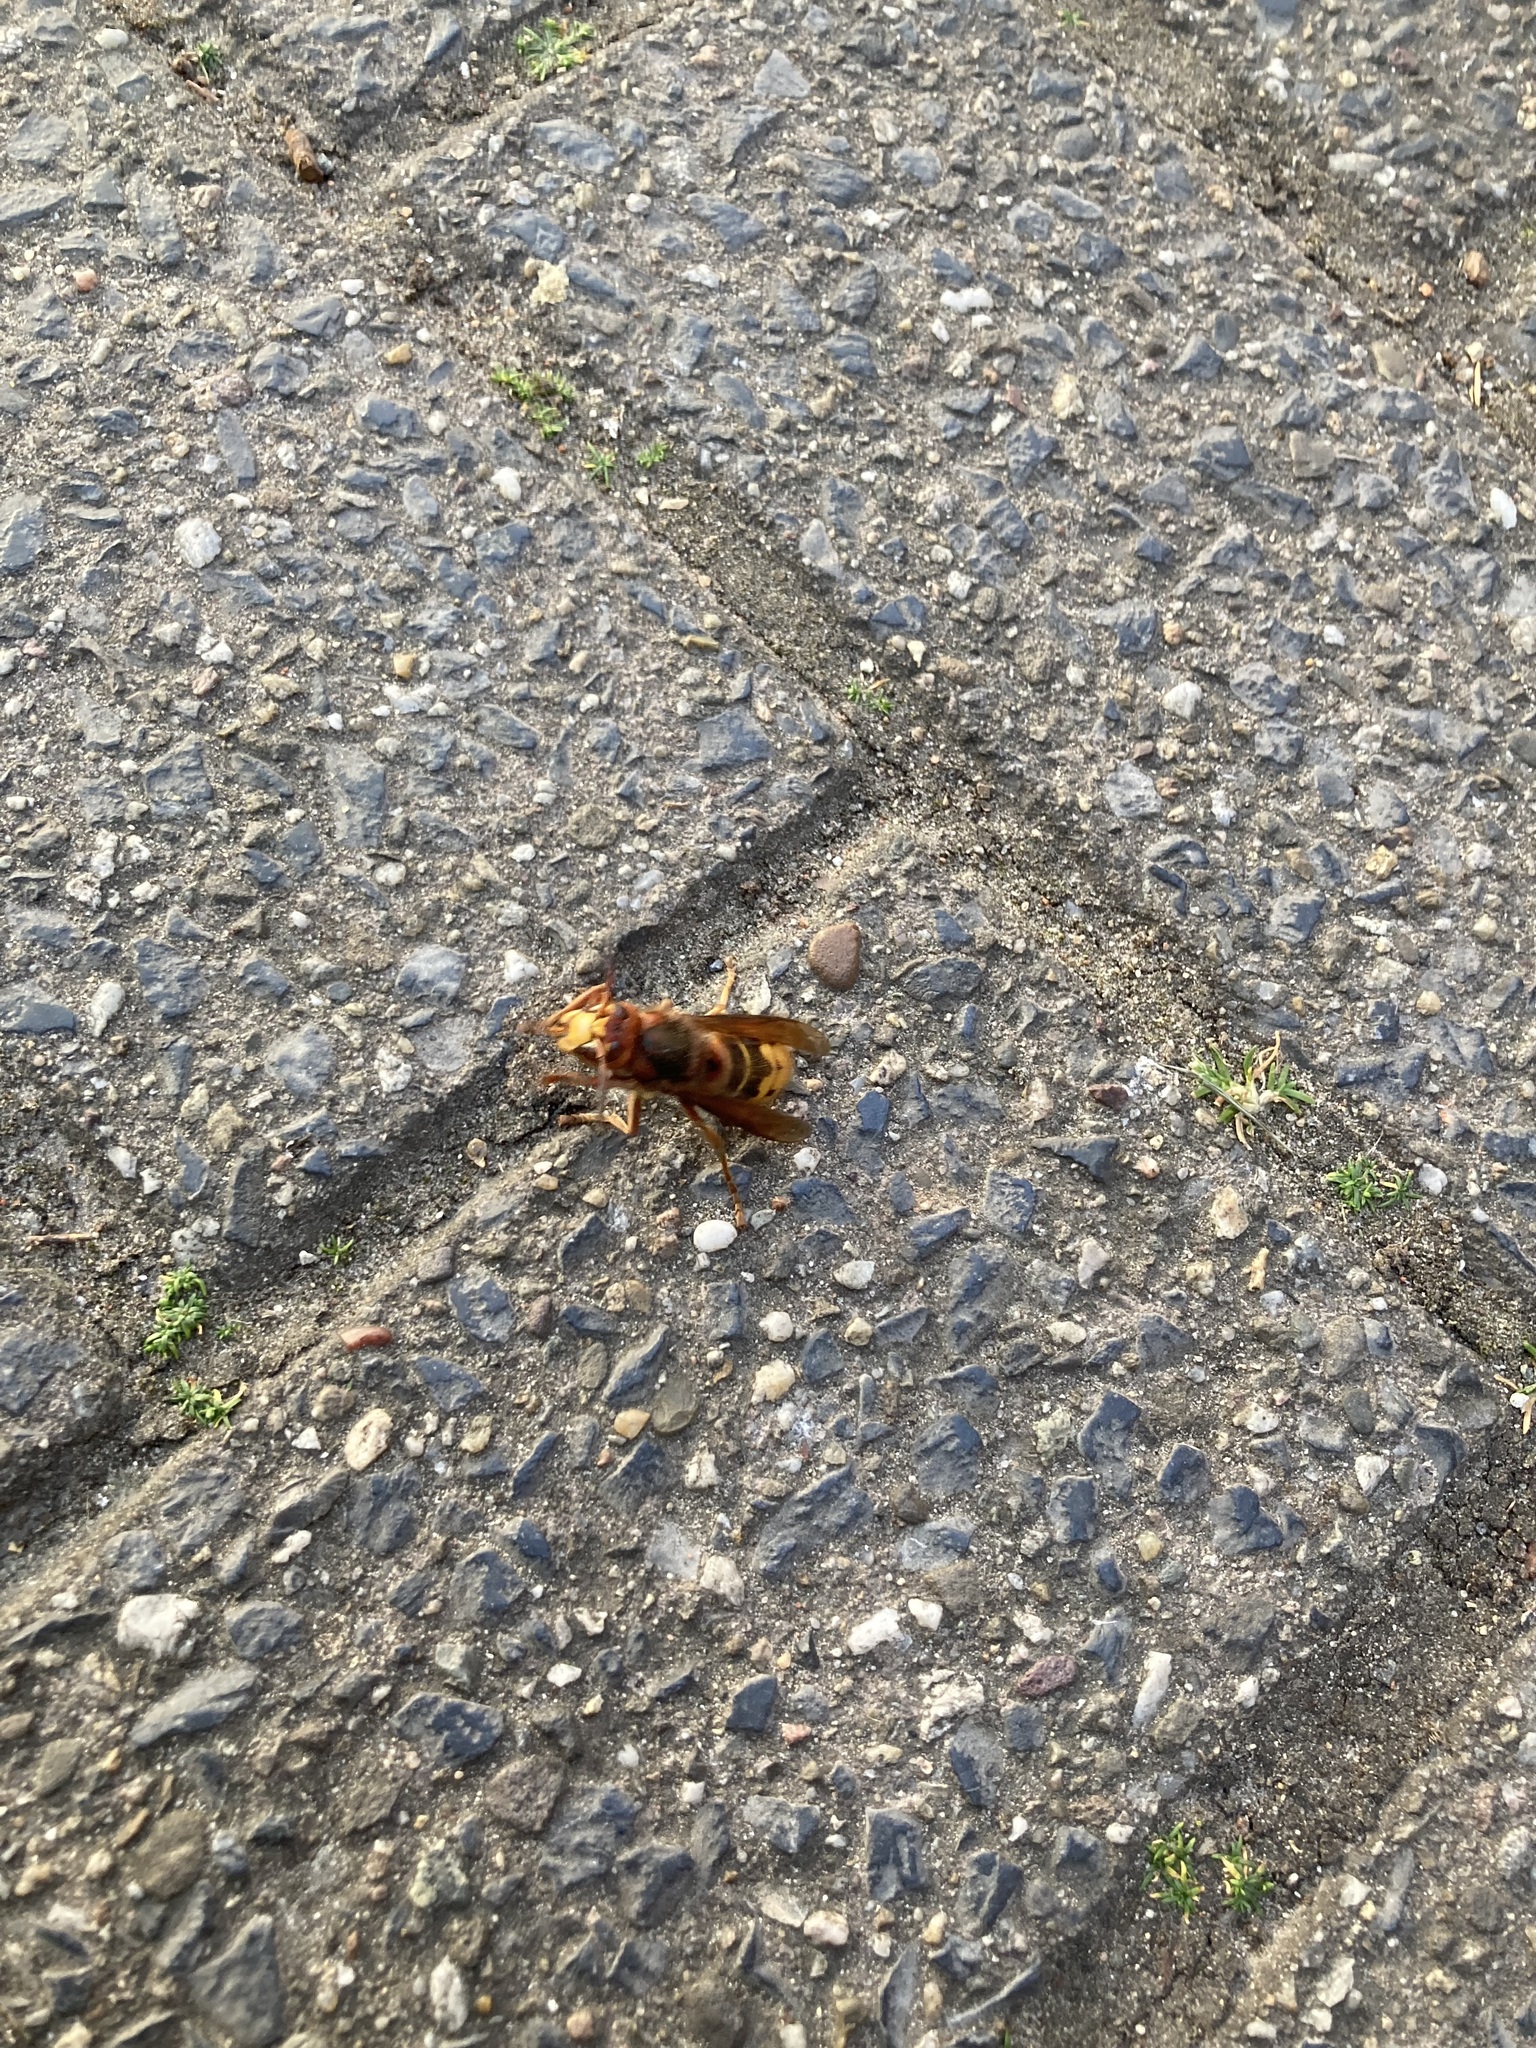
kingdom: Animalia
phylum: Arthropoda
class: Insecta
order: Hymenoptera
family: Vespidae
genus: Vespa
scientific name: Vespa crabro
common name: Hornet
